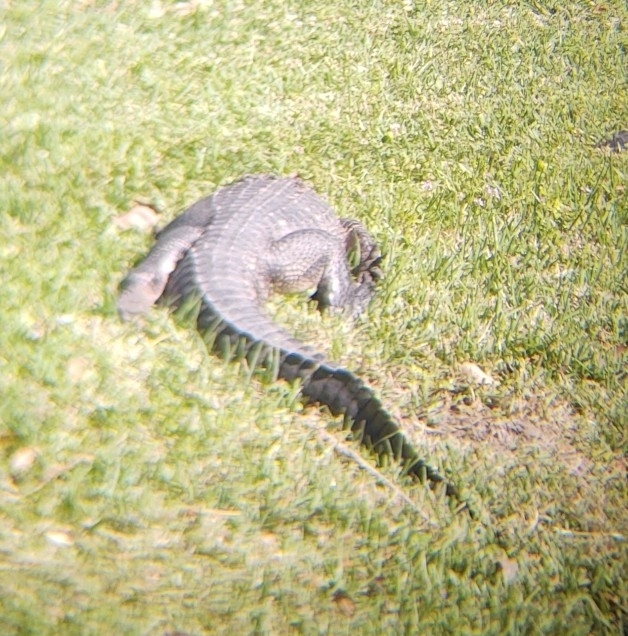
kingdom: Animalia
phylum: Chordata
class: Crocodylia
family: Alligatoridae
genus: Alligator
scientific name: Alligator mississippiensis
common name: American alligator
